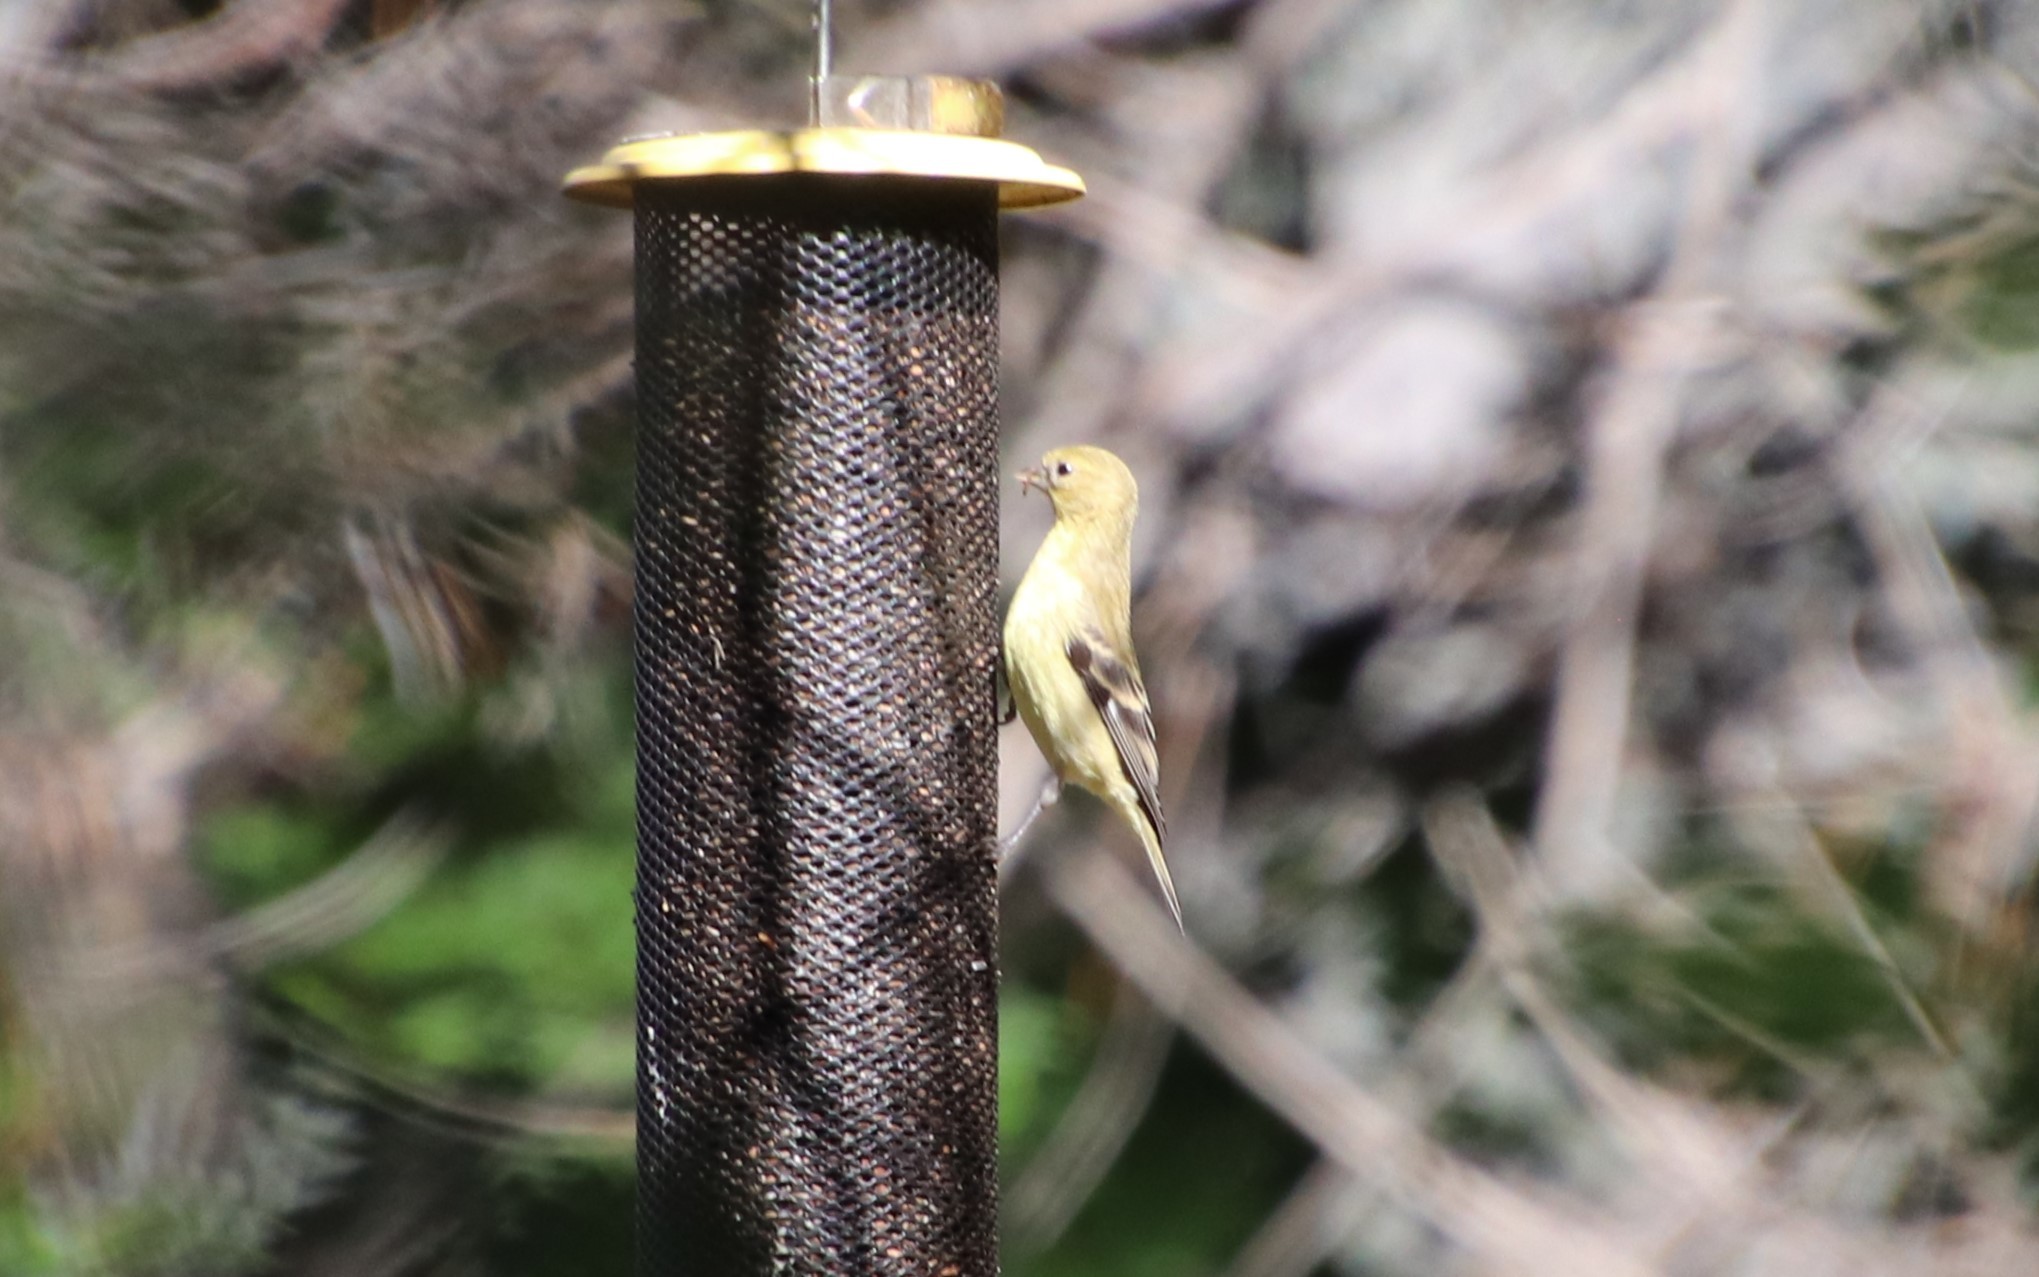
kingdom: Animalia
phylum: Chordata
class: Aves
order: Passeriformes
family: Fringillidae
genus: Spinus
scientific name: Spinus psaltria
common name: Lesser goldfinch
